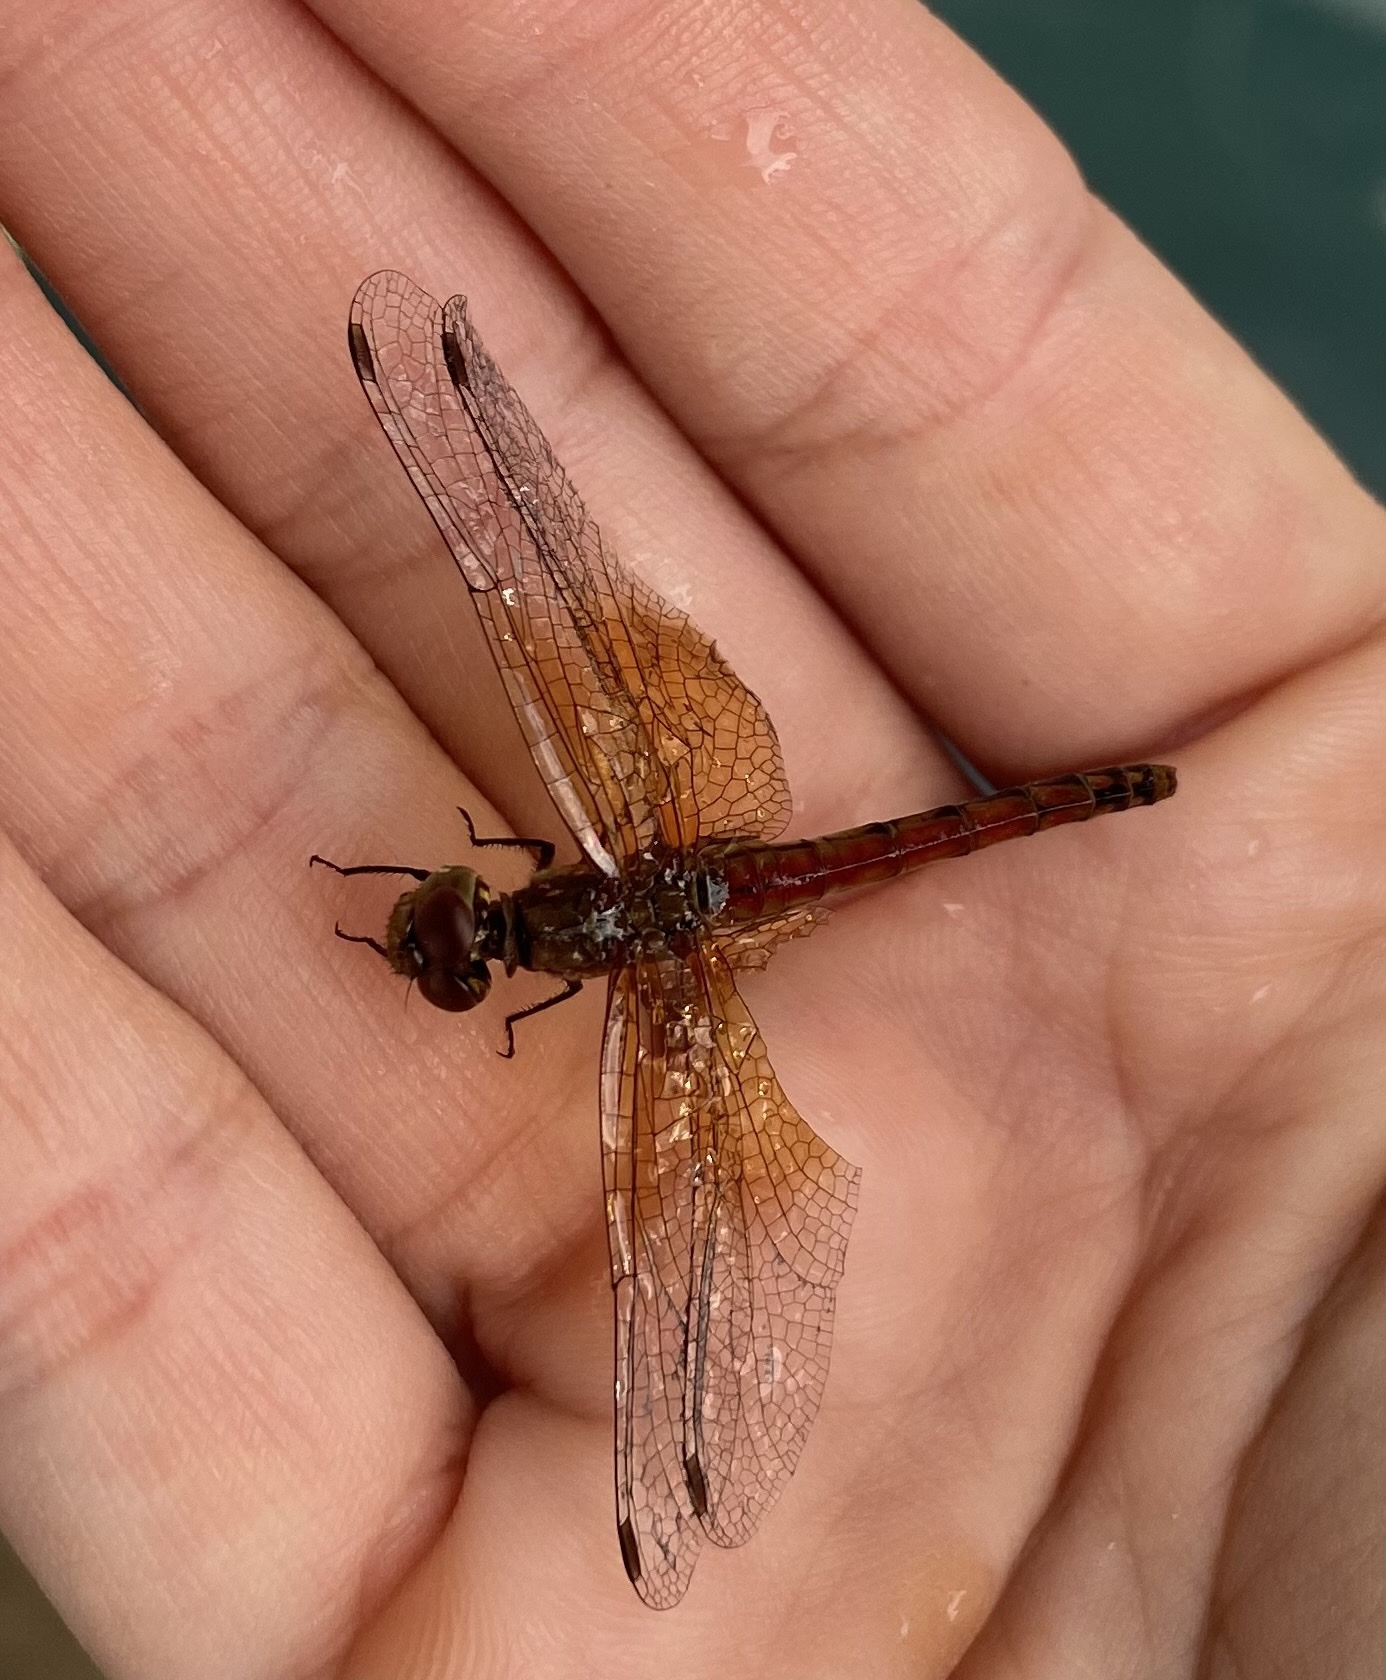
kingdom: Animalia
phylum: Arthropoda
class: Insecta
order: Odonata
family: Libellulidae
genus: Sympetrum
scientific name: Sympetrum semicinctum
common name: Band-winged meadowhawk
